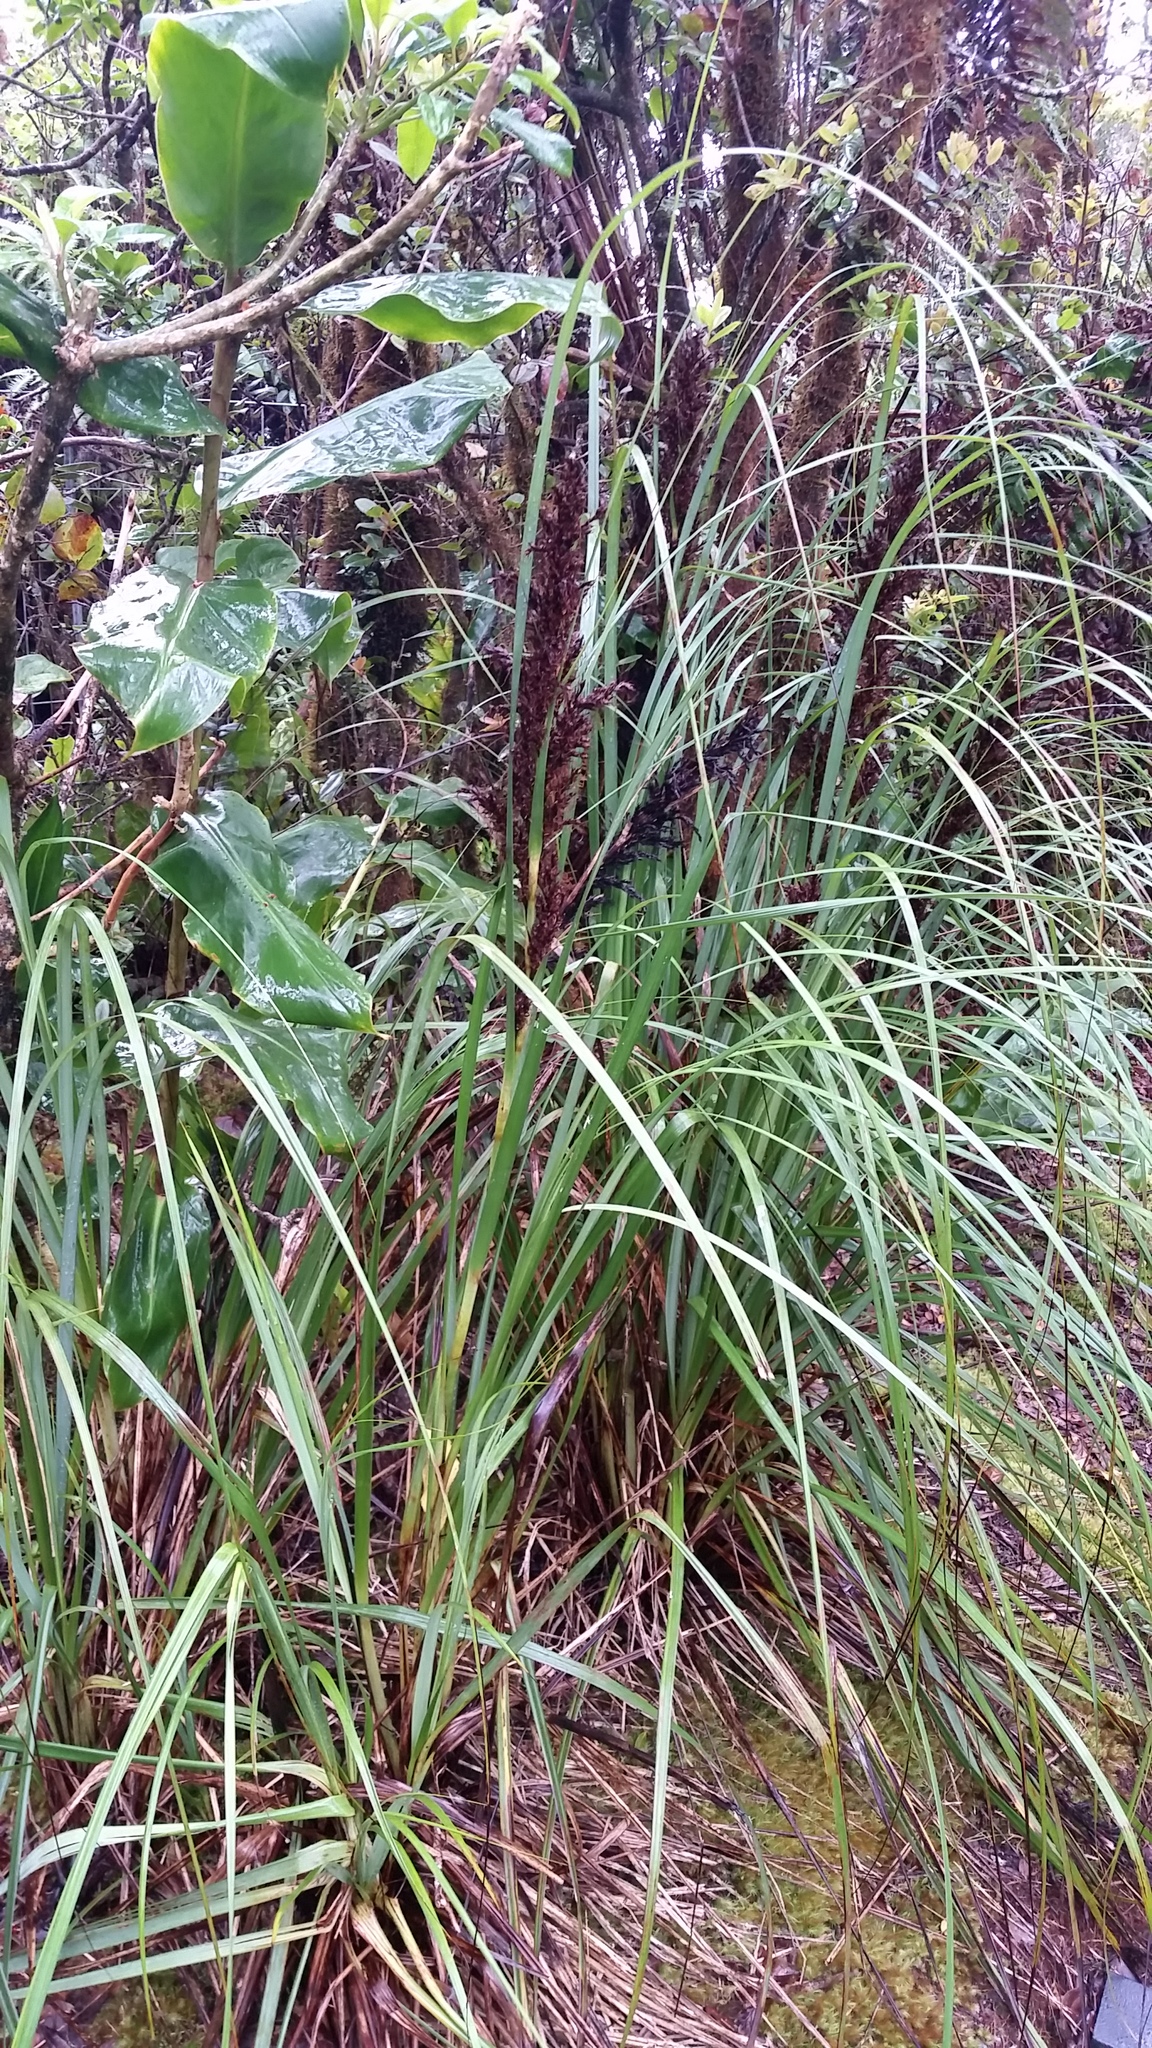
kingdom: Plantae
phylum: Tracheophyta
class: Liliopsida
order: Poales
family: Cyperaceae
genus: Gahnia
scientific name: Gahnia vitiensis
